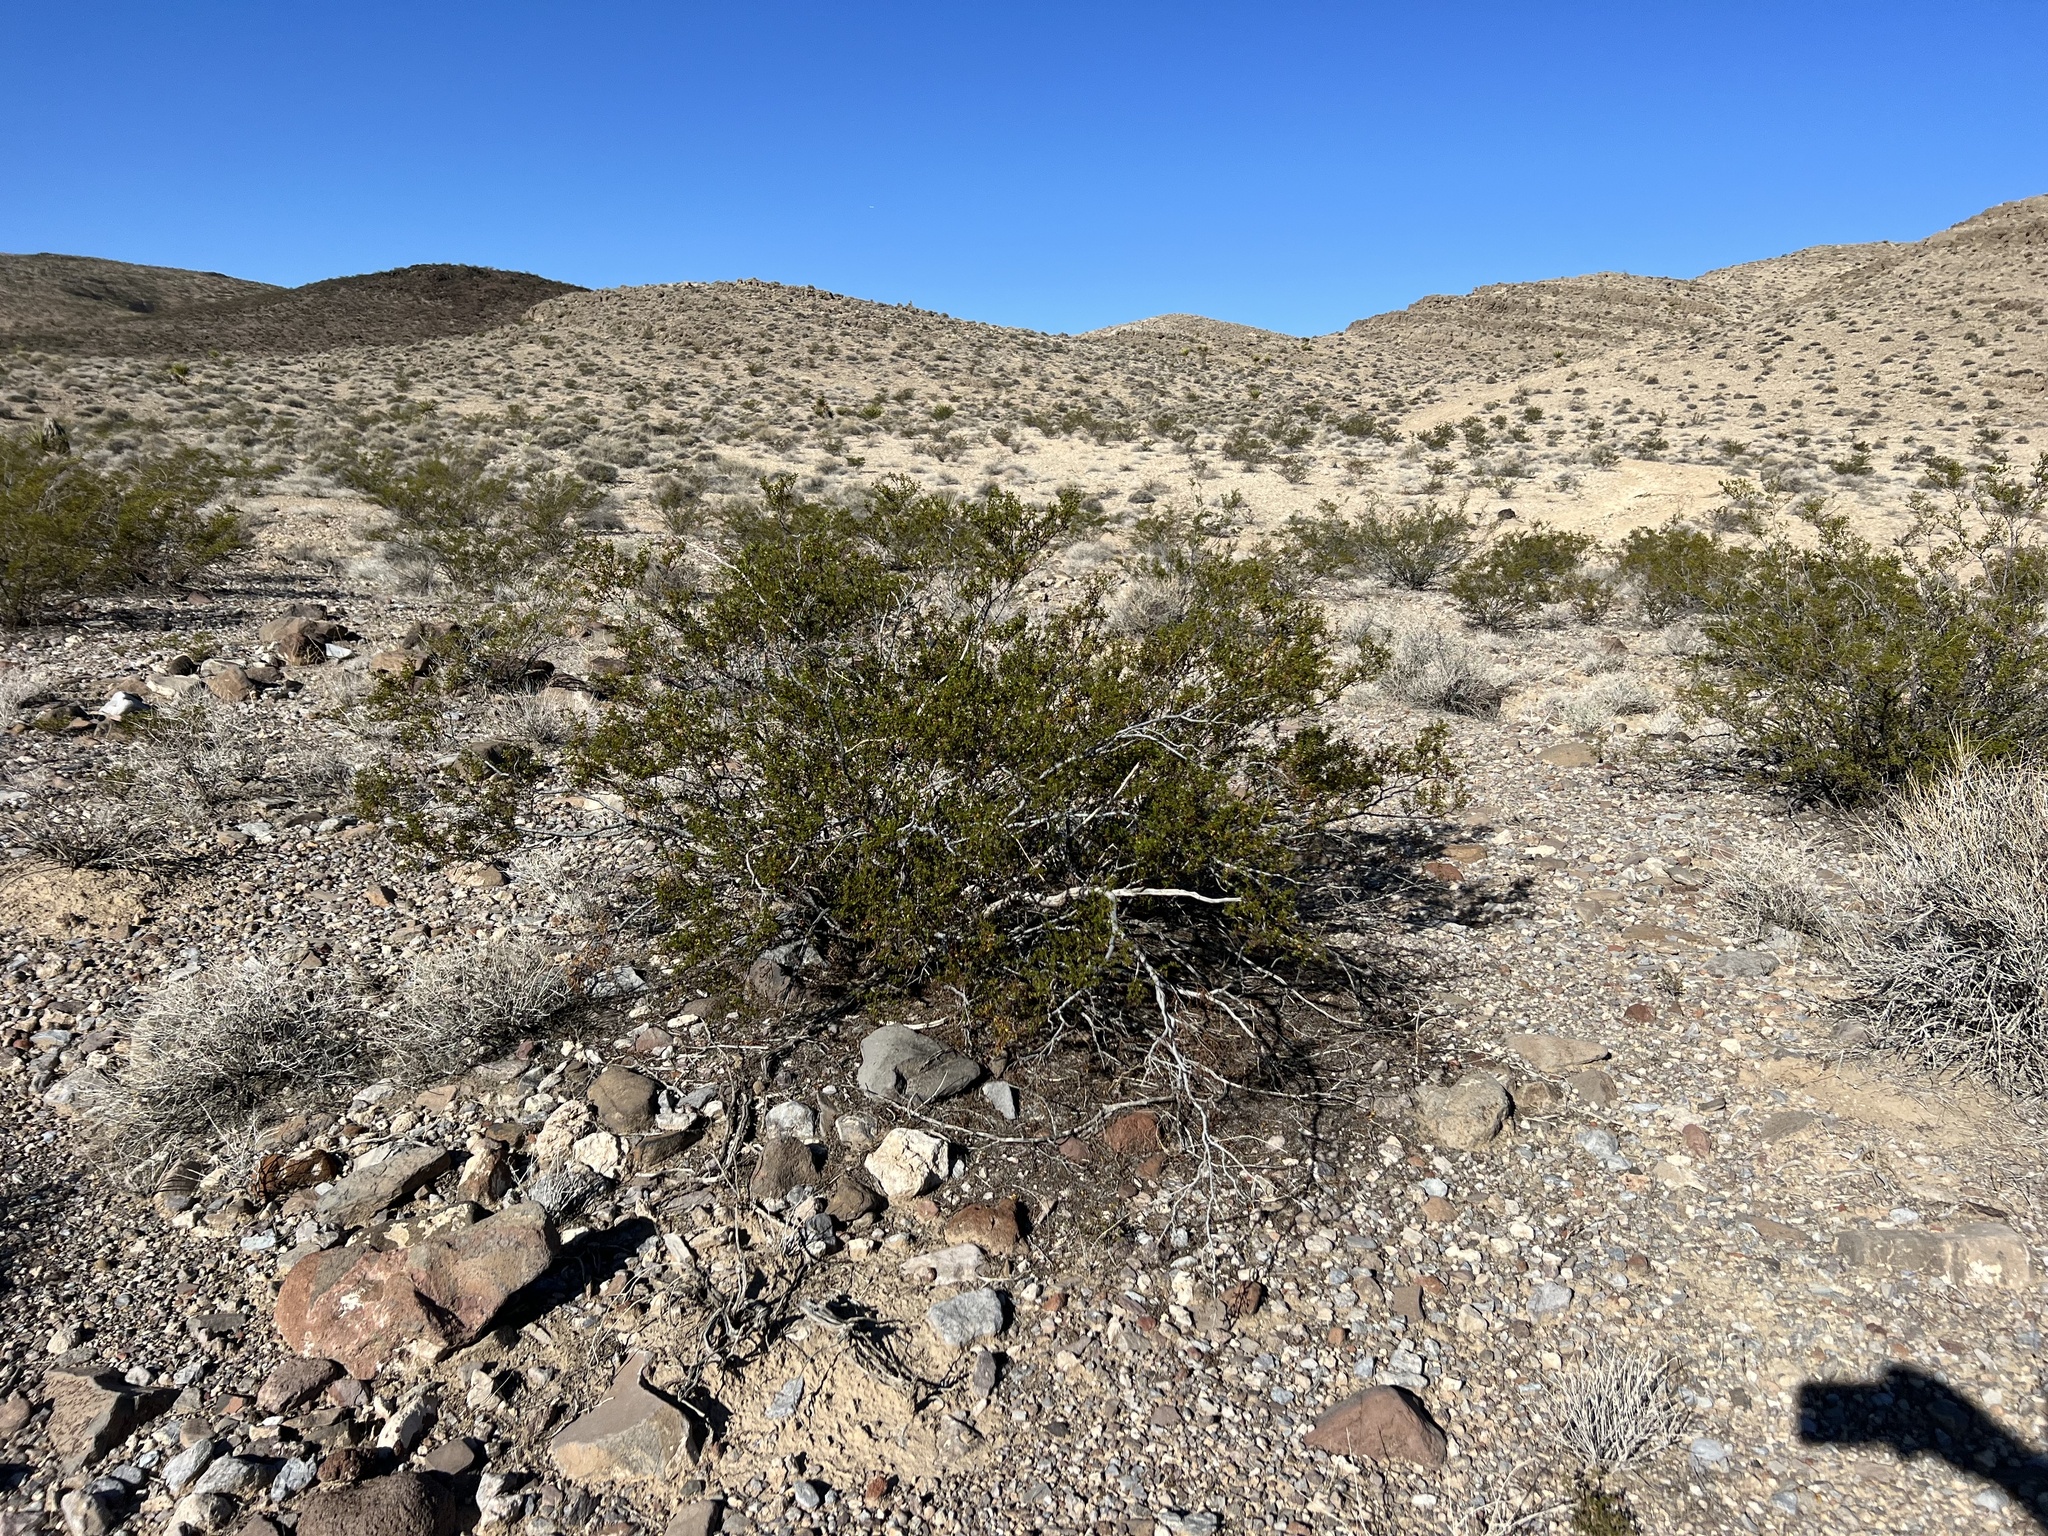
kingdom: Plantae
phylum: Tracheophyta
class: Magnoliopsida
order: Zygophyllales
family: Zygophyllaceae
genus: Larrea
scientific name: Larrea tridentata
